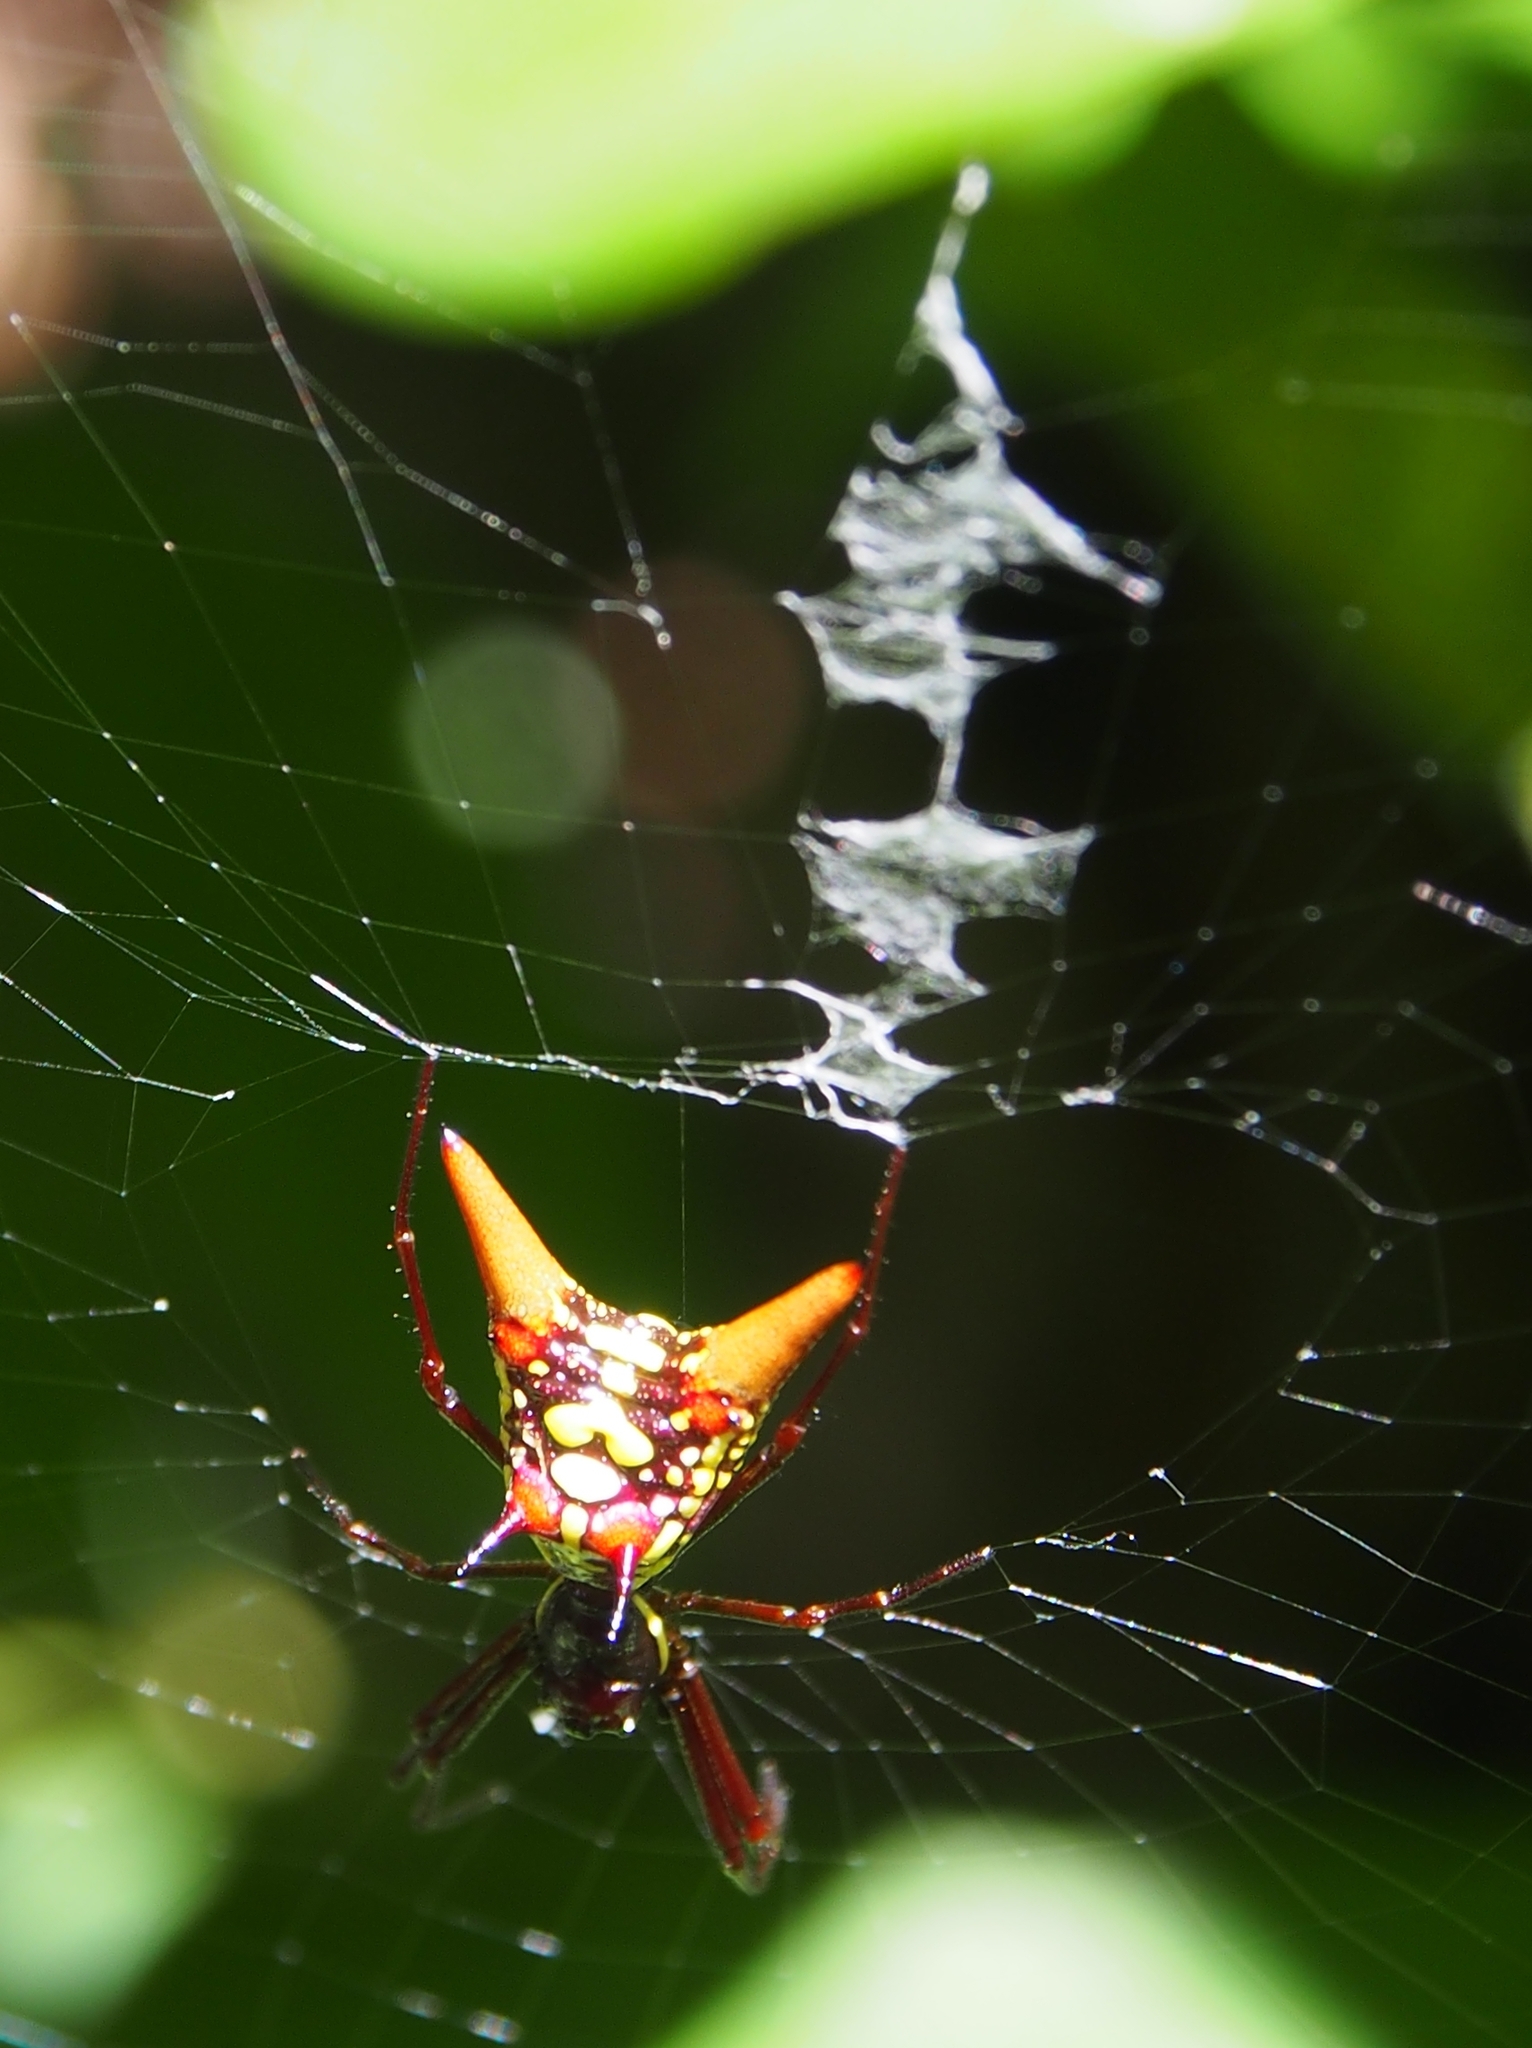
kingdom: Animalia
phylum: Arthropoda
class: Arachnida
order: Araneae
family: Araneidae
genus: Micrathena
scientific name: Micrathena sexspinosa
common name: Orb weavers
